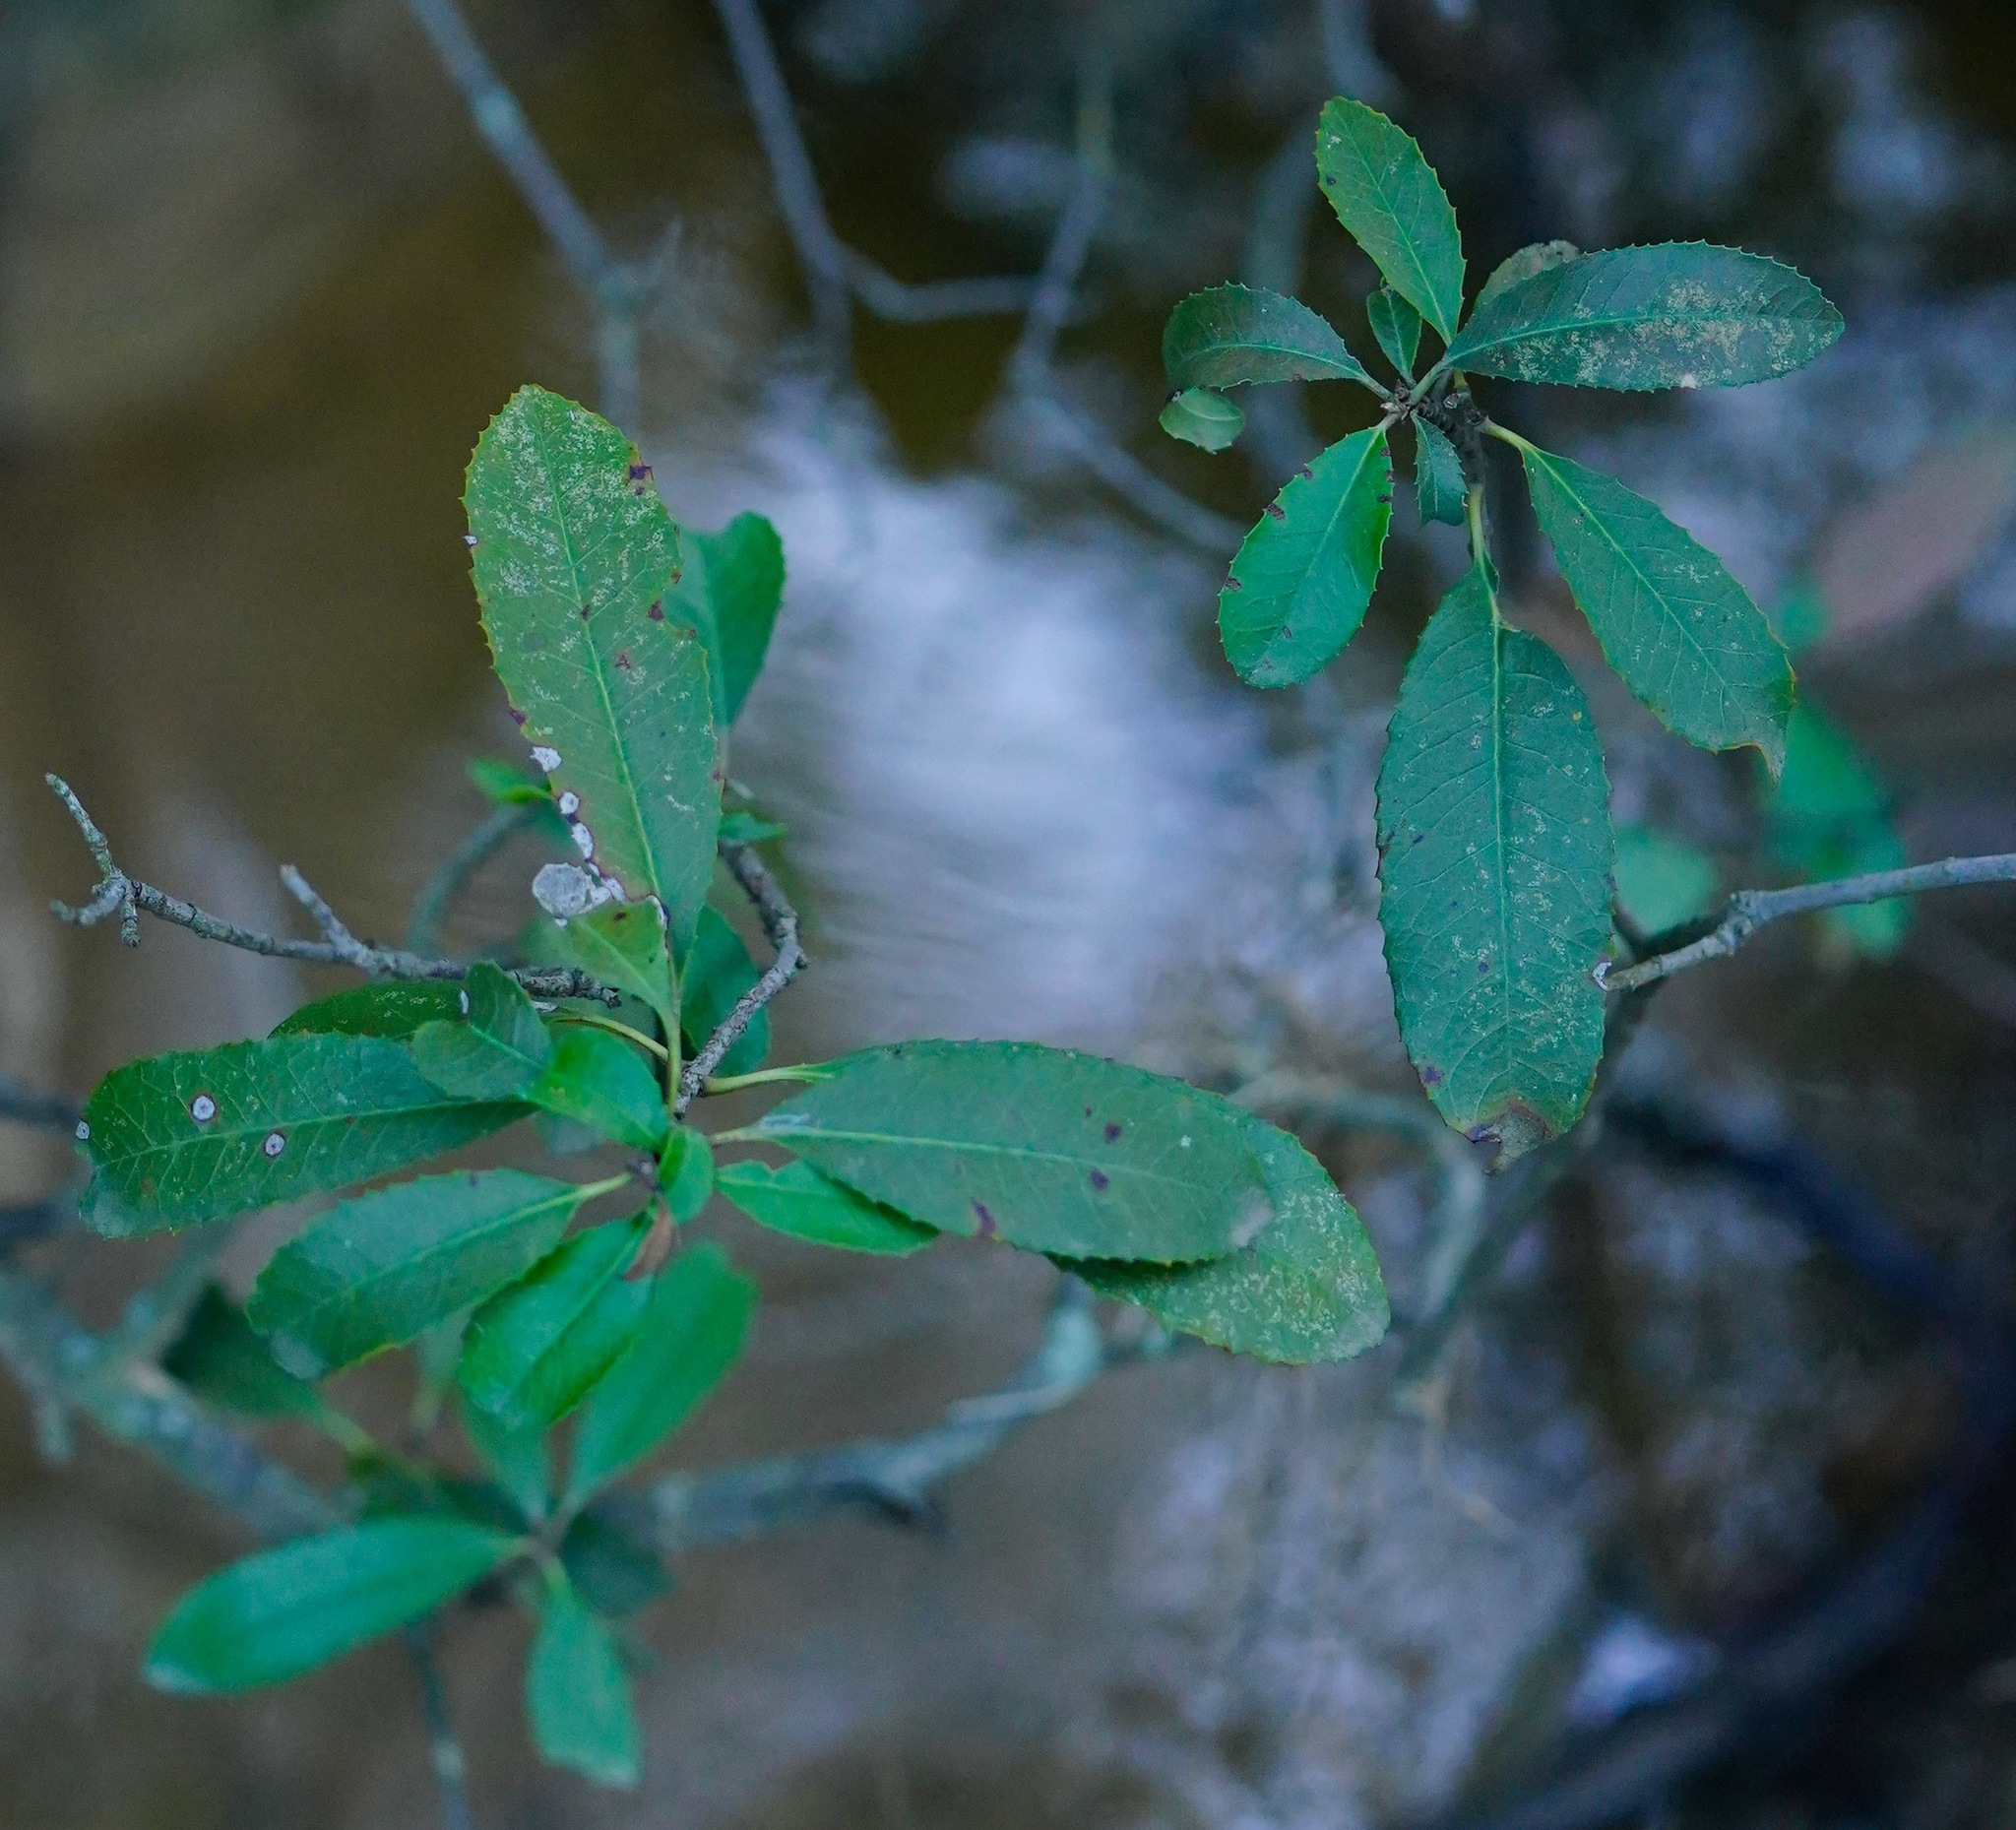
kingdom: Plantae
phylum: Tracheophyta
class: Magnoliopsida
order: Rosales
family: Rosaceae
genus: Heteromeles
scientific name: Heteromeles arbutifolia
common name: California-holly
